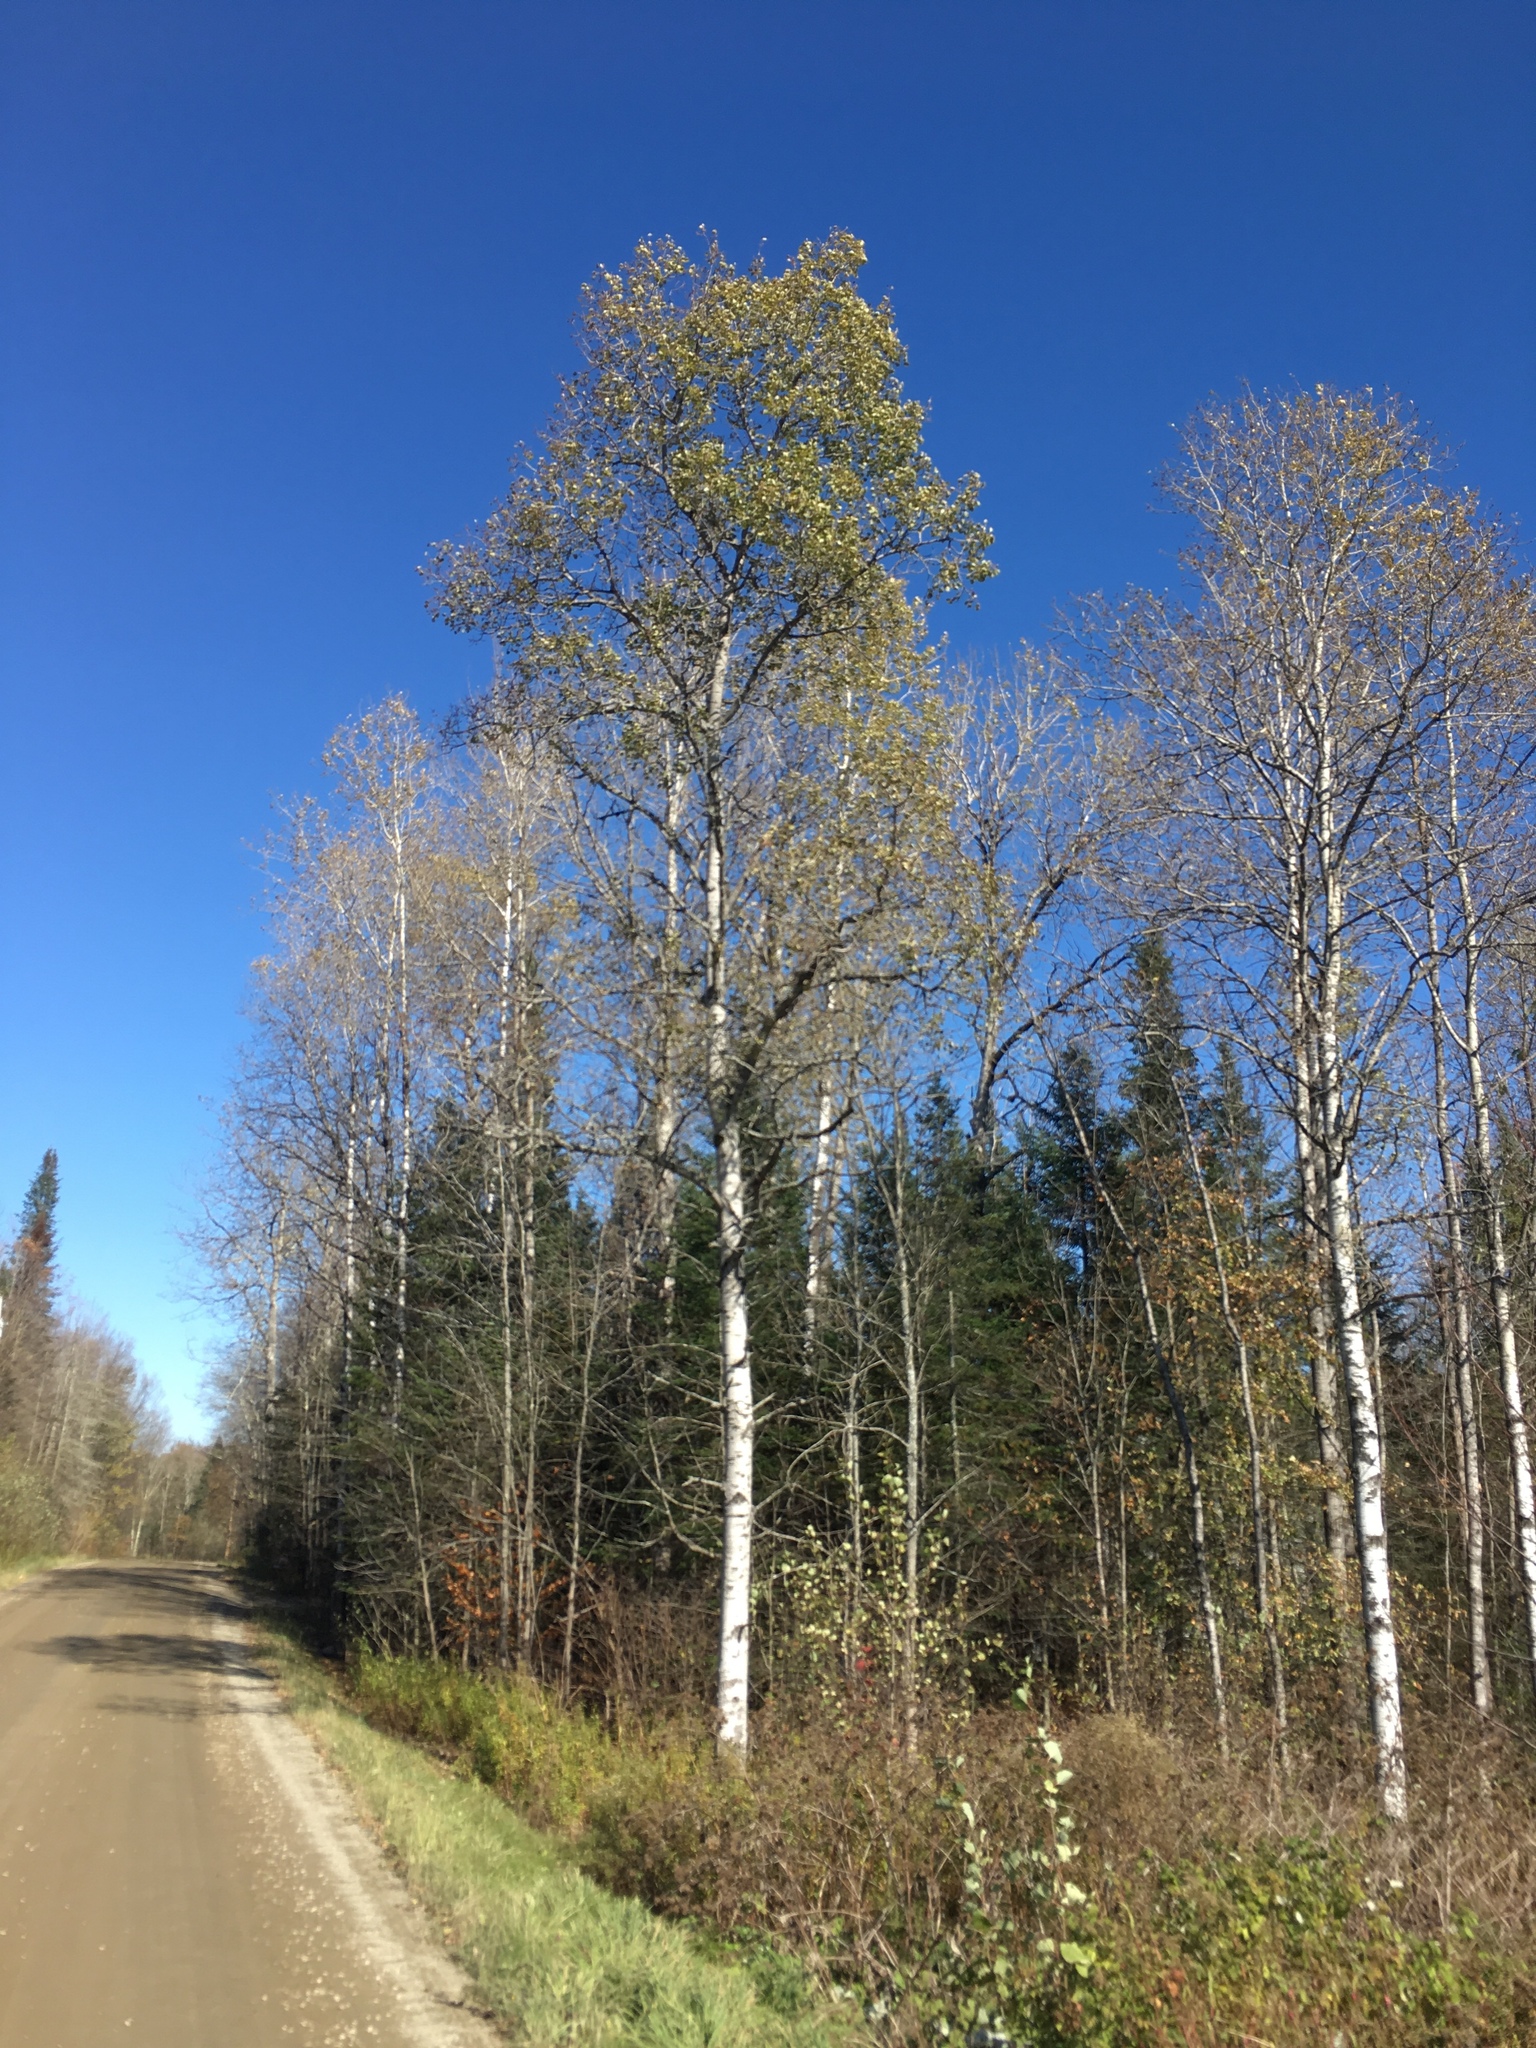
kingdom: Plantae
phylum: Tracheophyta
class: Magnoliopsida
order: Malpighiales
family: Salicaceae
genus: Populus
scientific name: Populus tremuloides
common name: Quaking aspen
